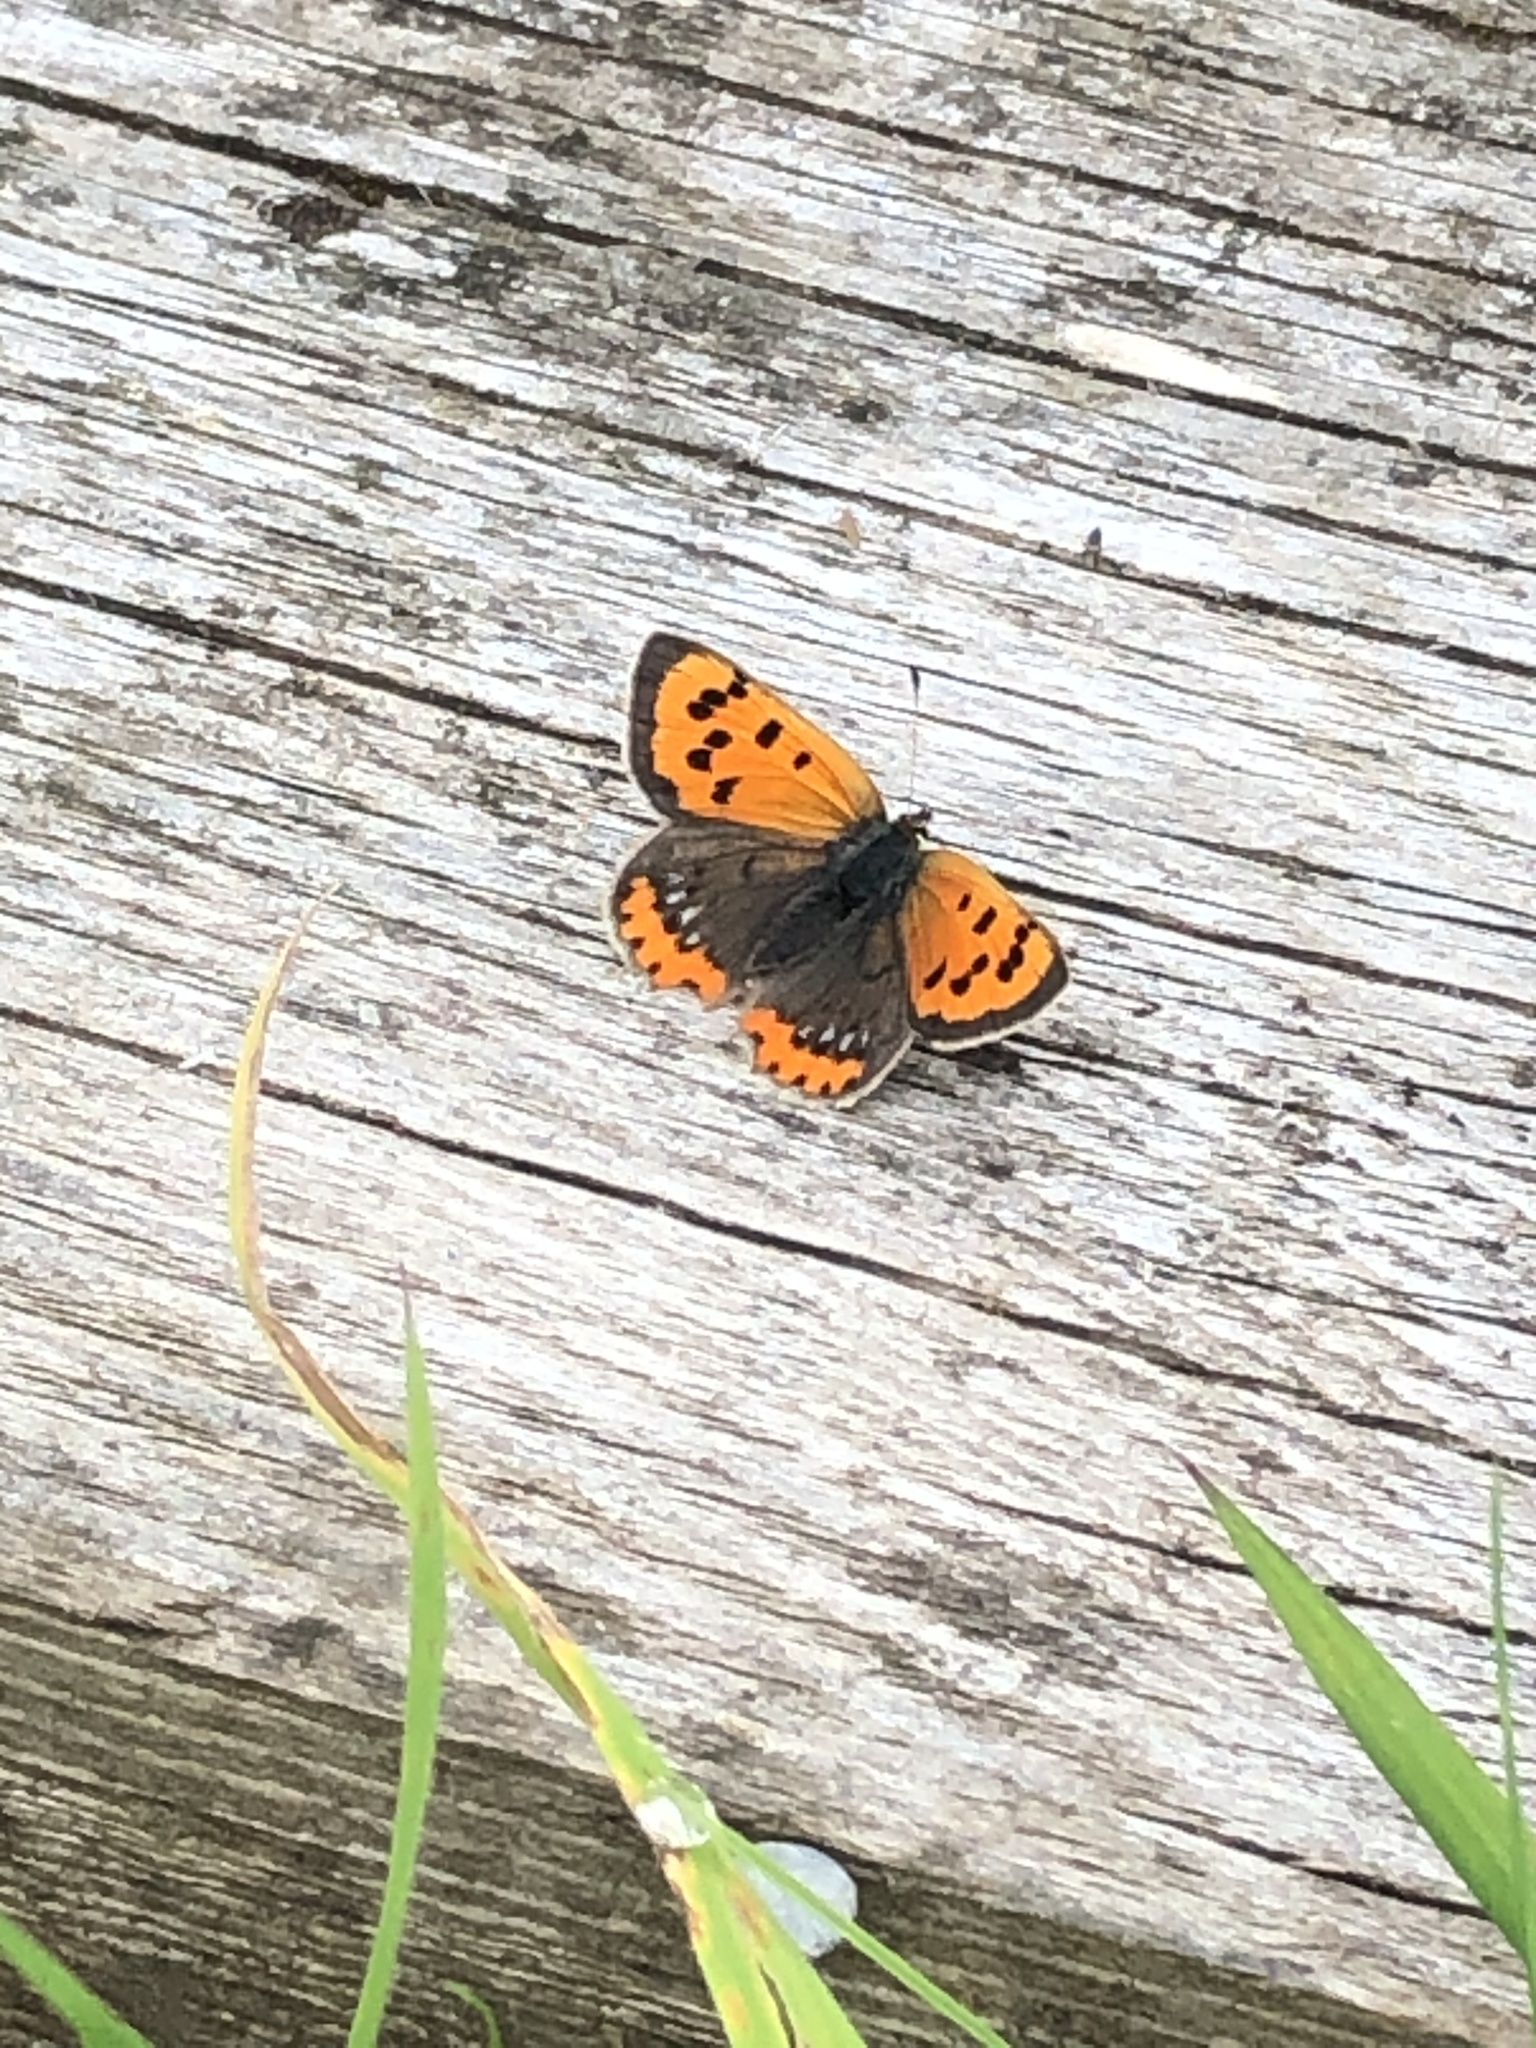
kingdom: Animalia
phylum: Arthropoda
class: Insecta
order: Lepidoptera
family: Lycaenidae
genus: Lycaena
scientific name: Lycaena phlaeas
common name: Small copper
